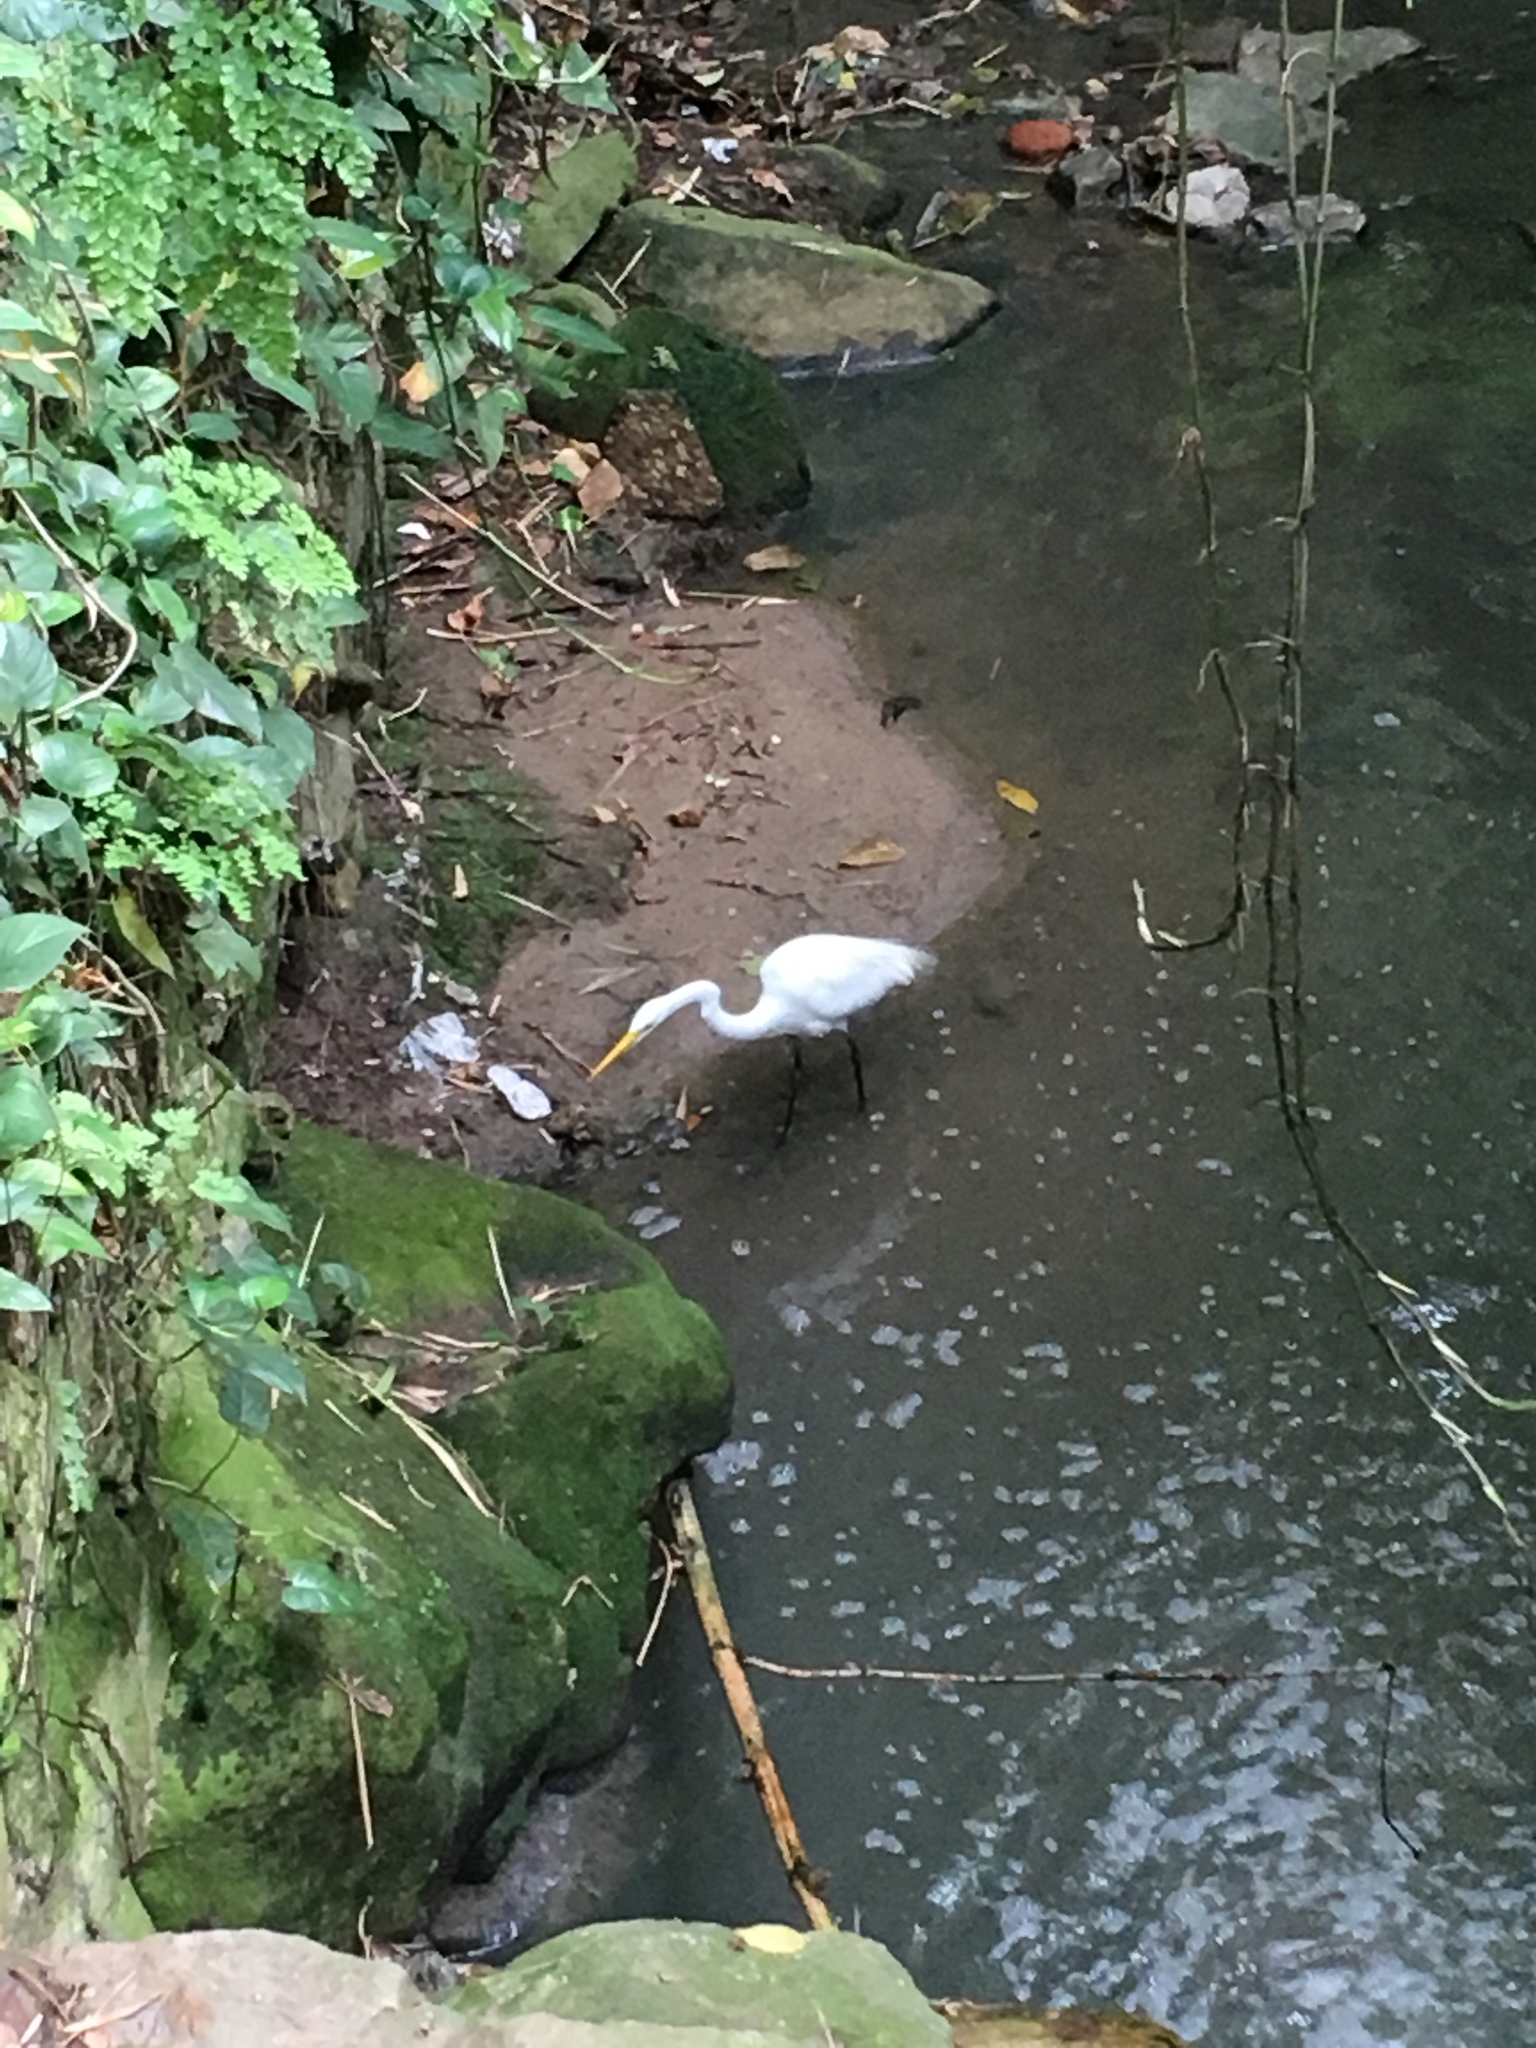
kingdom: Animalia
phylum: Chordata
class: Aves
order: Pelecaniformes
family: Ardeidae
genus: Ardea
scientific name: Ardea alba
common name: Great egret
